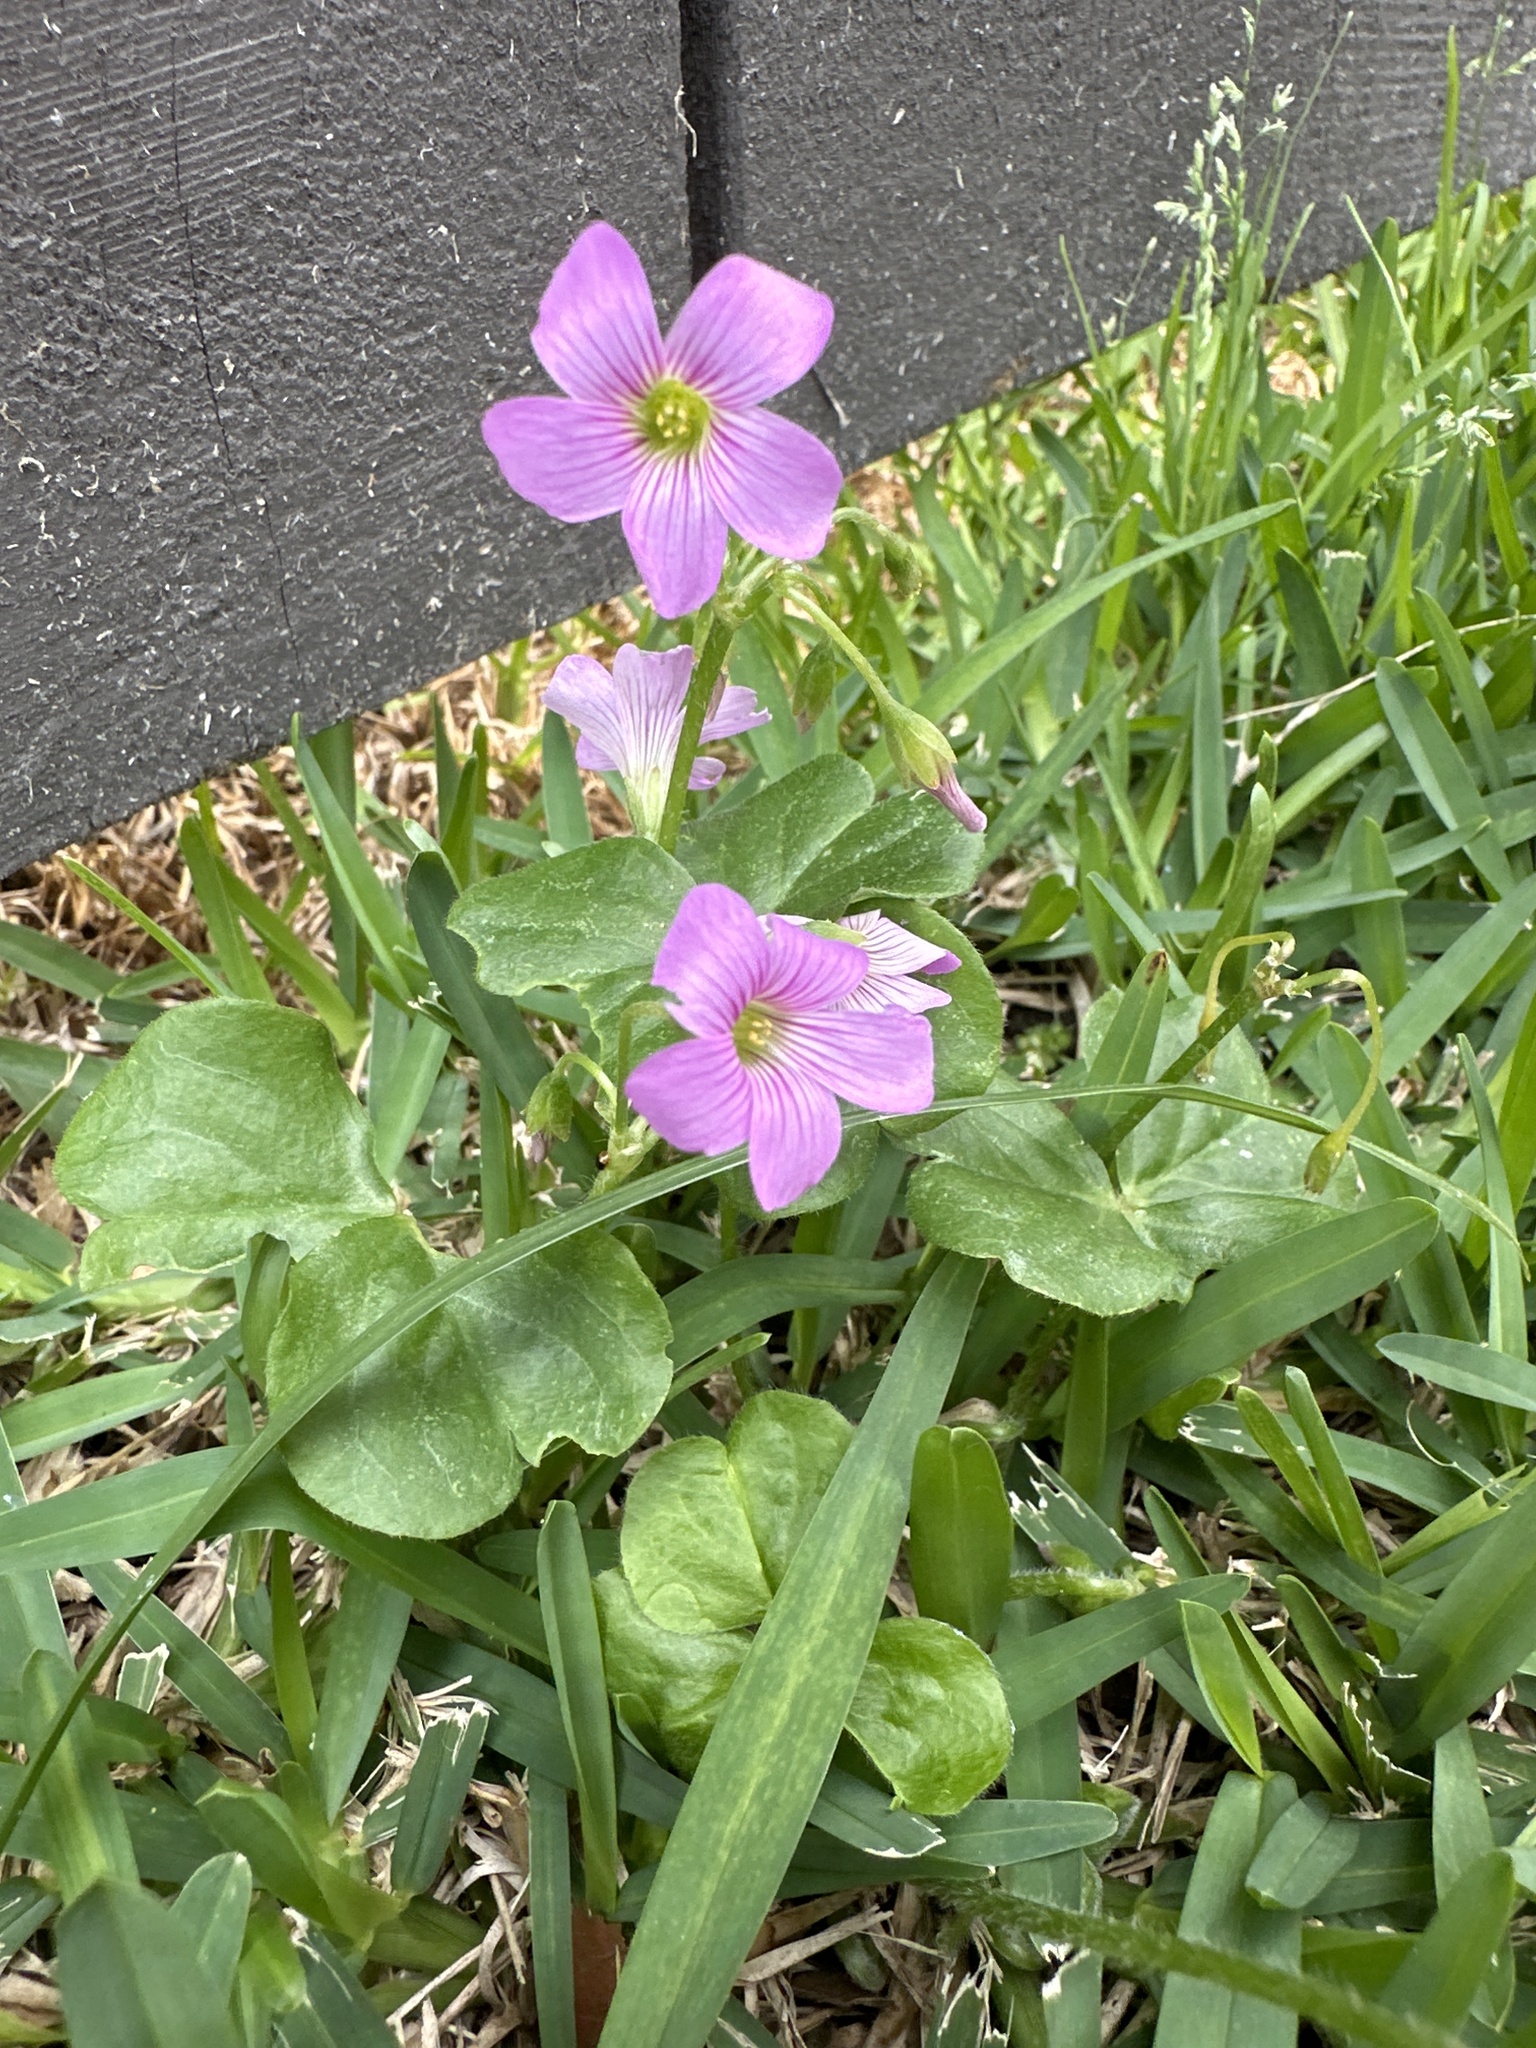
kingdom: Plantae
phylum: Tracheophyta
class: Magnoliopsida
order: Oxalidales
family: Oxalidaceae
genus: Oxalis
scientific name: Oxalis debilis
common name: Large-flowered pink-sorrel
